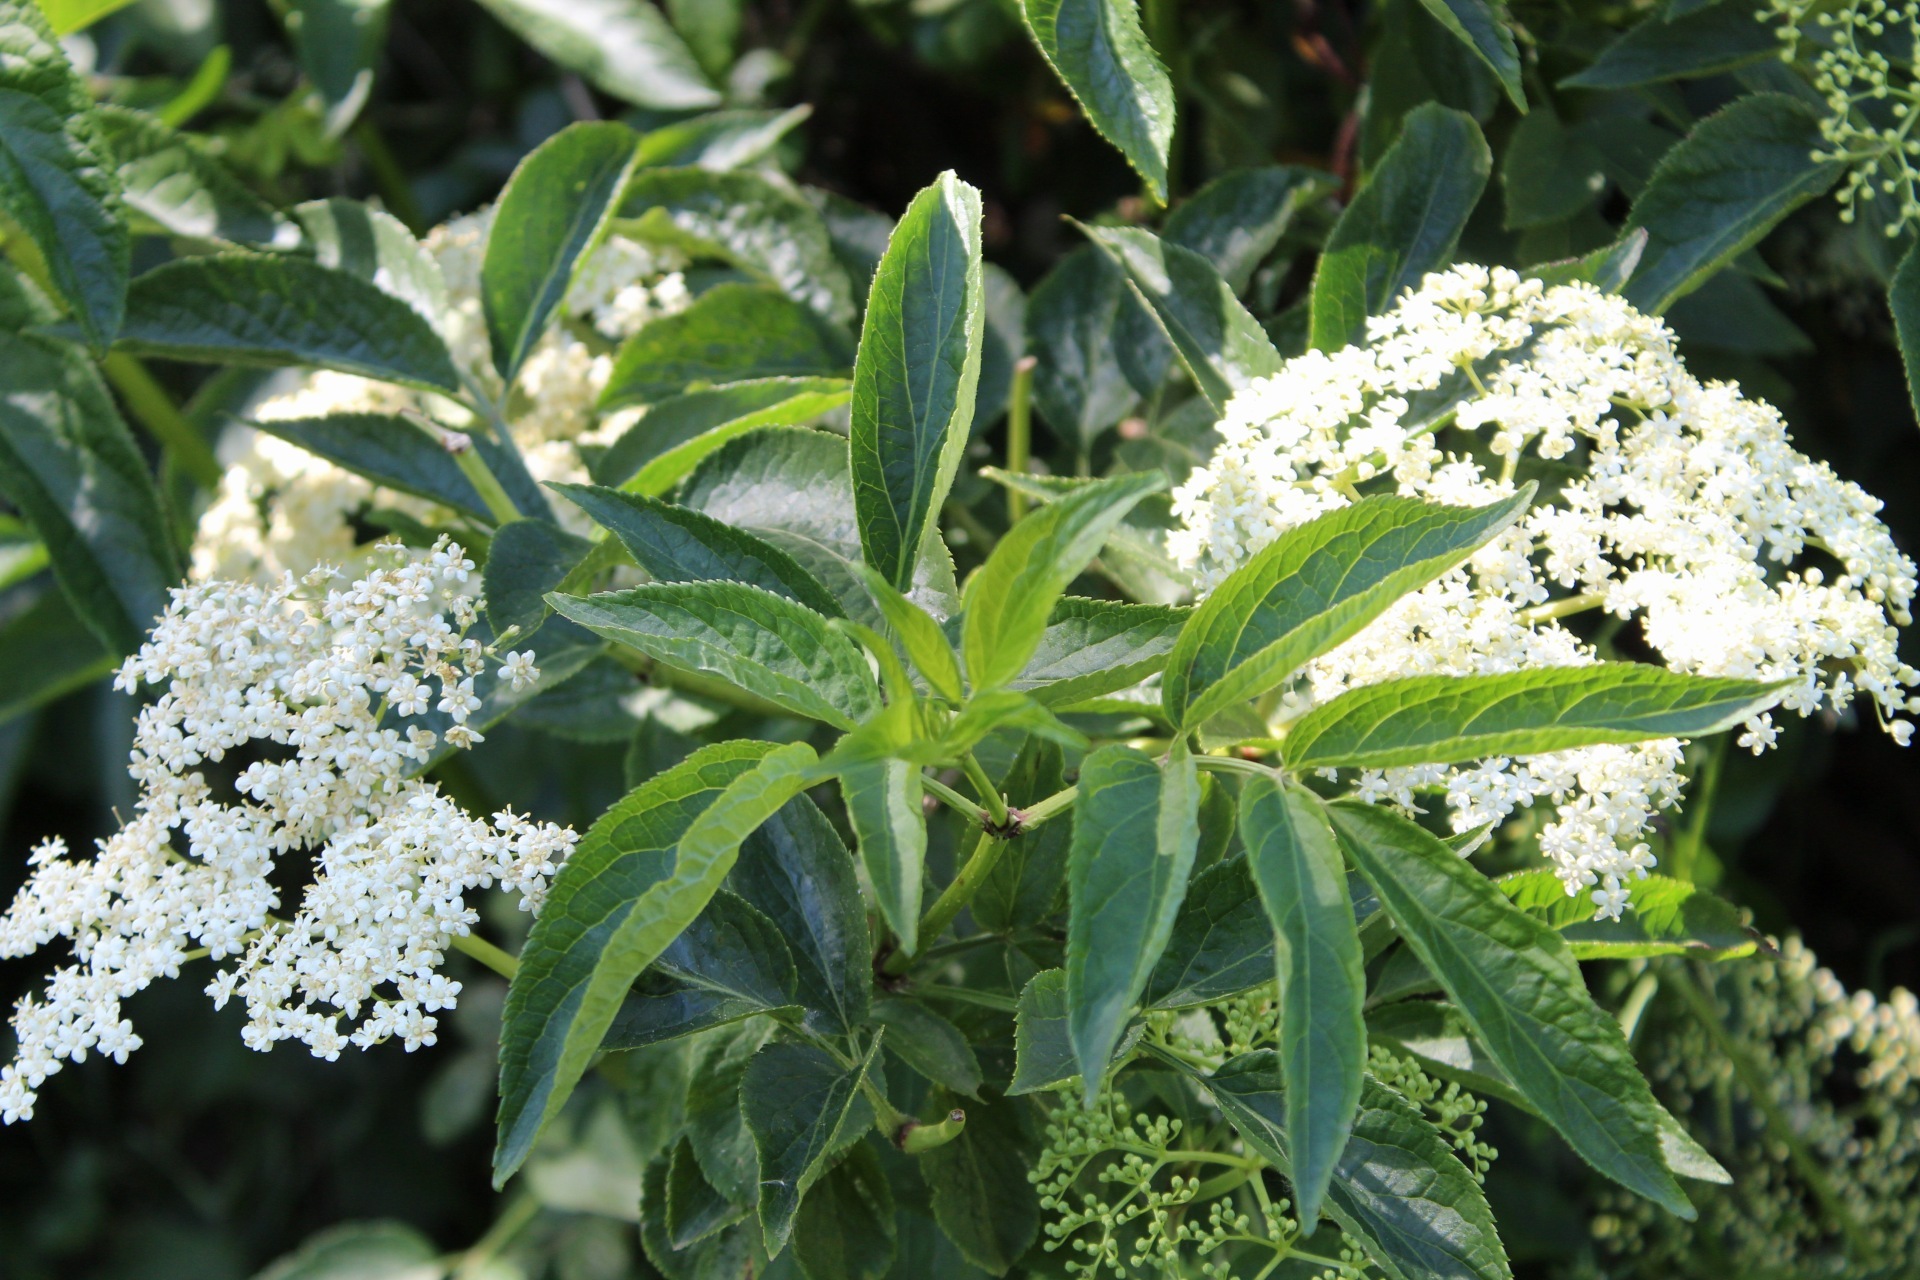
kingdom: Plantae
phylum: Tracheophyta
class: Magnoliopsida
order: Dipsacales
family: Viburnaceae
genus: Sambucus
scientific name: Sambucus nigra
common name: Elder
